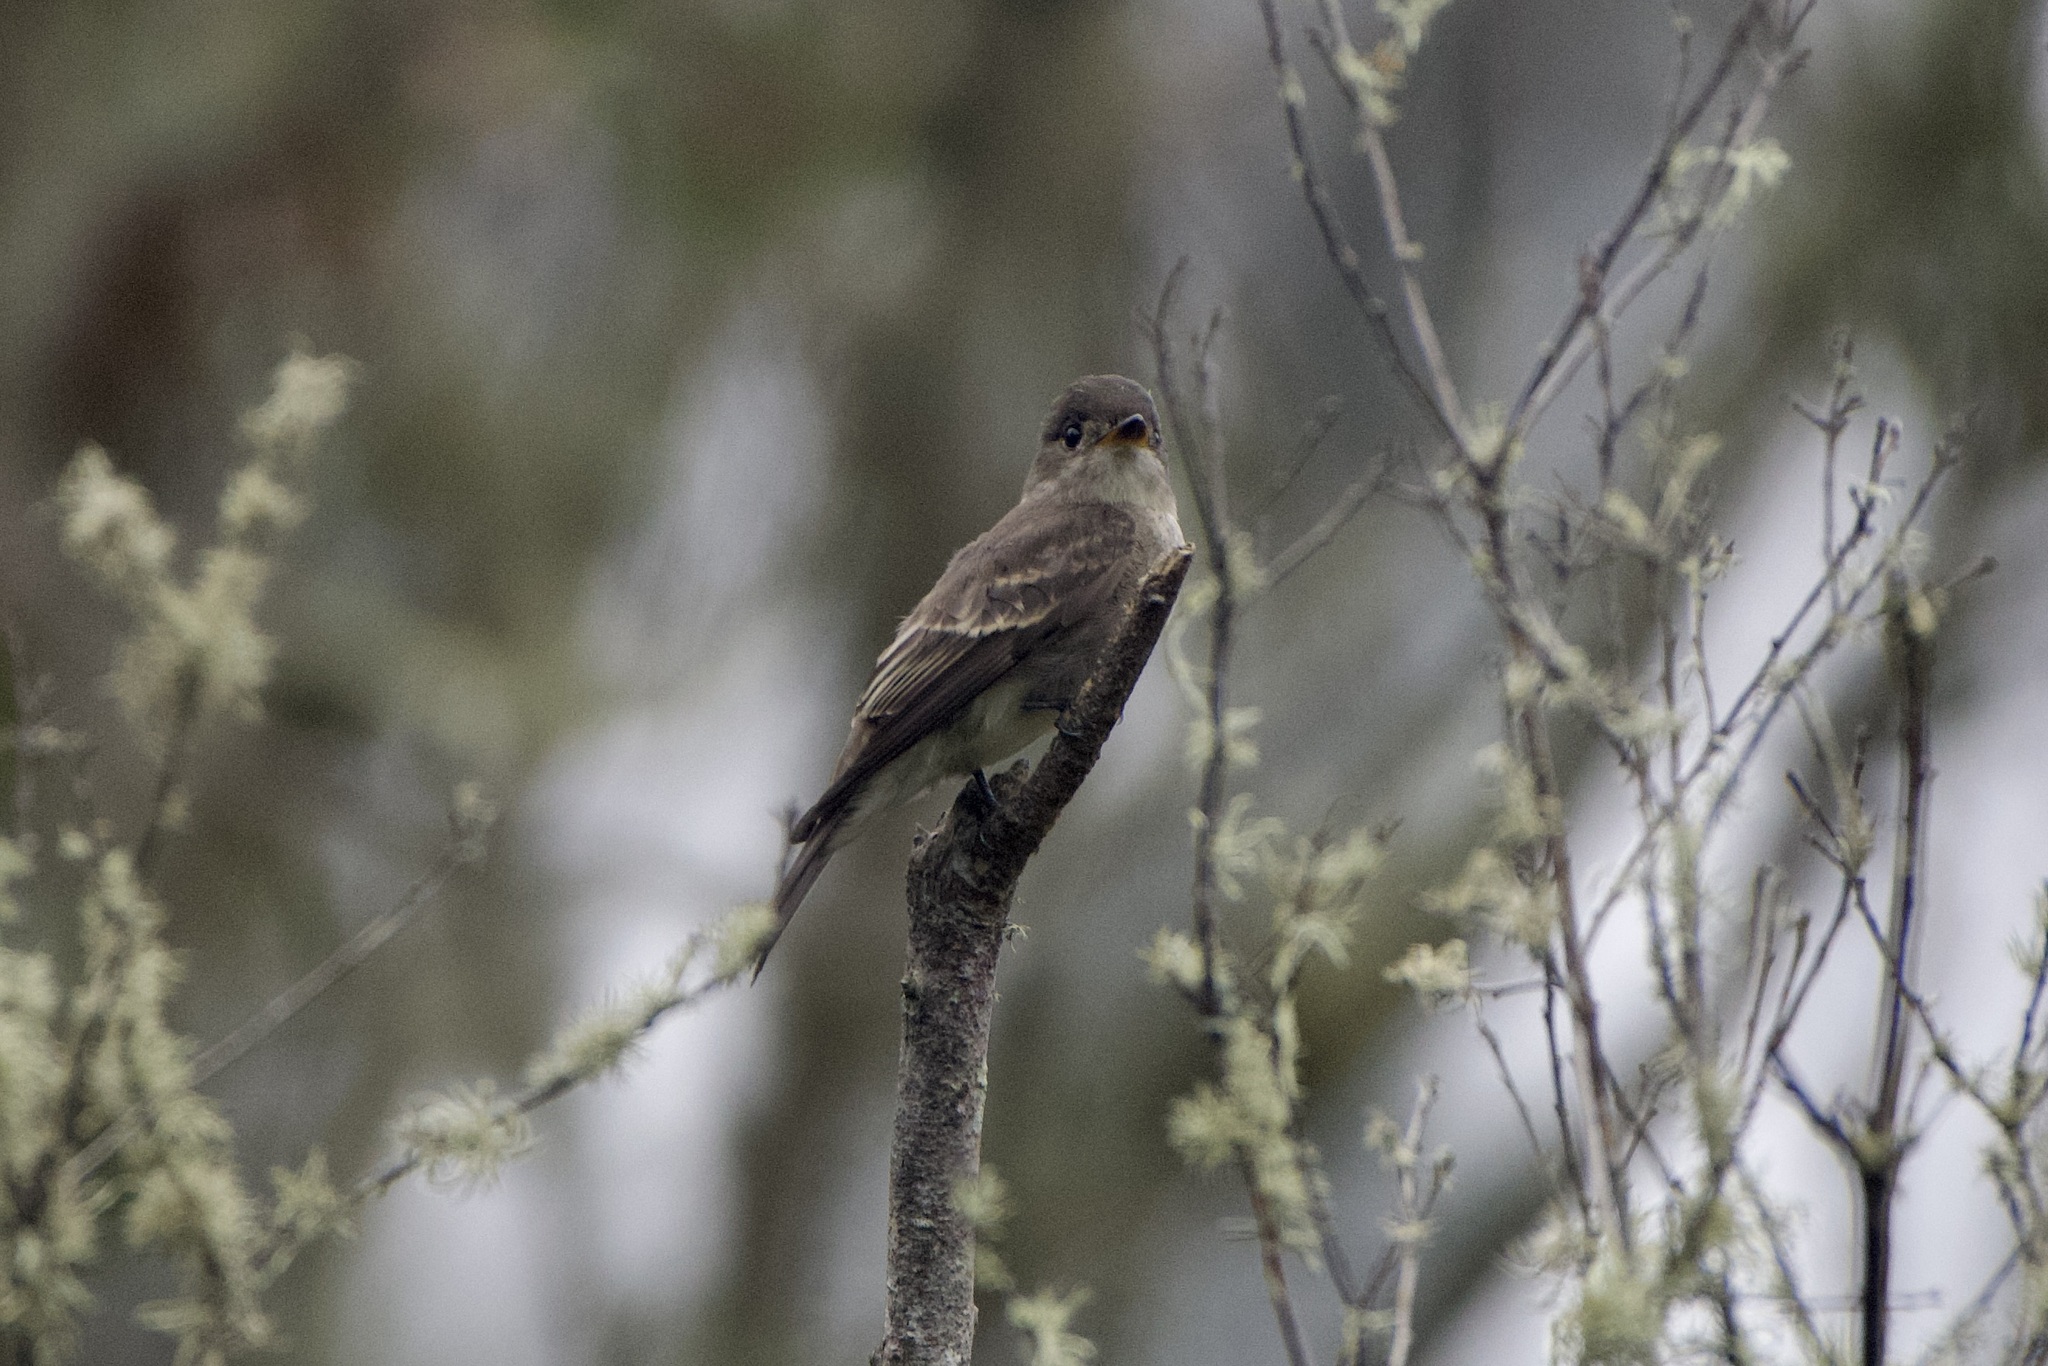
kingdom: Animalia
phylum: Chordata
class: Aves
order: Passeriformes
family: Tyrannidae
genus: Contopus
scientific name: Contopus sordidulus
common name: Western wood-pewee
